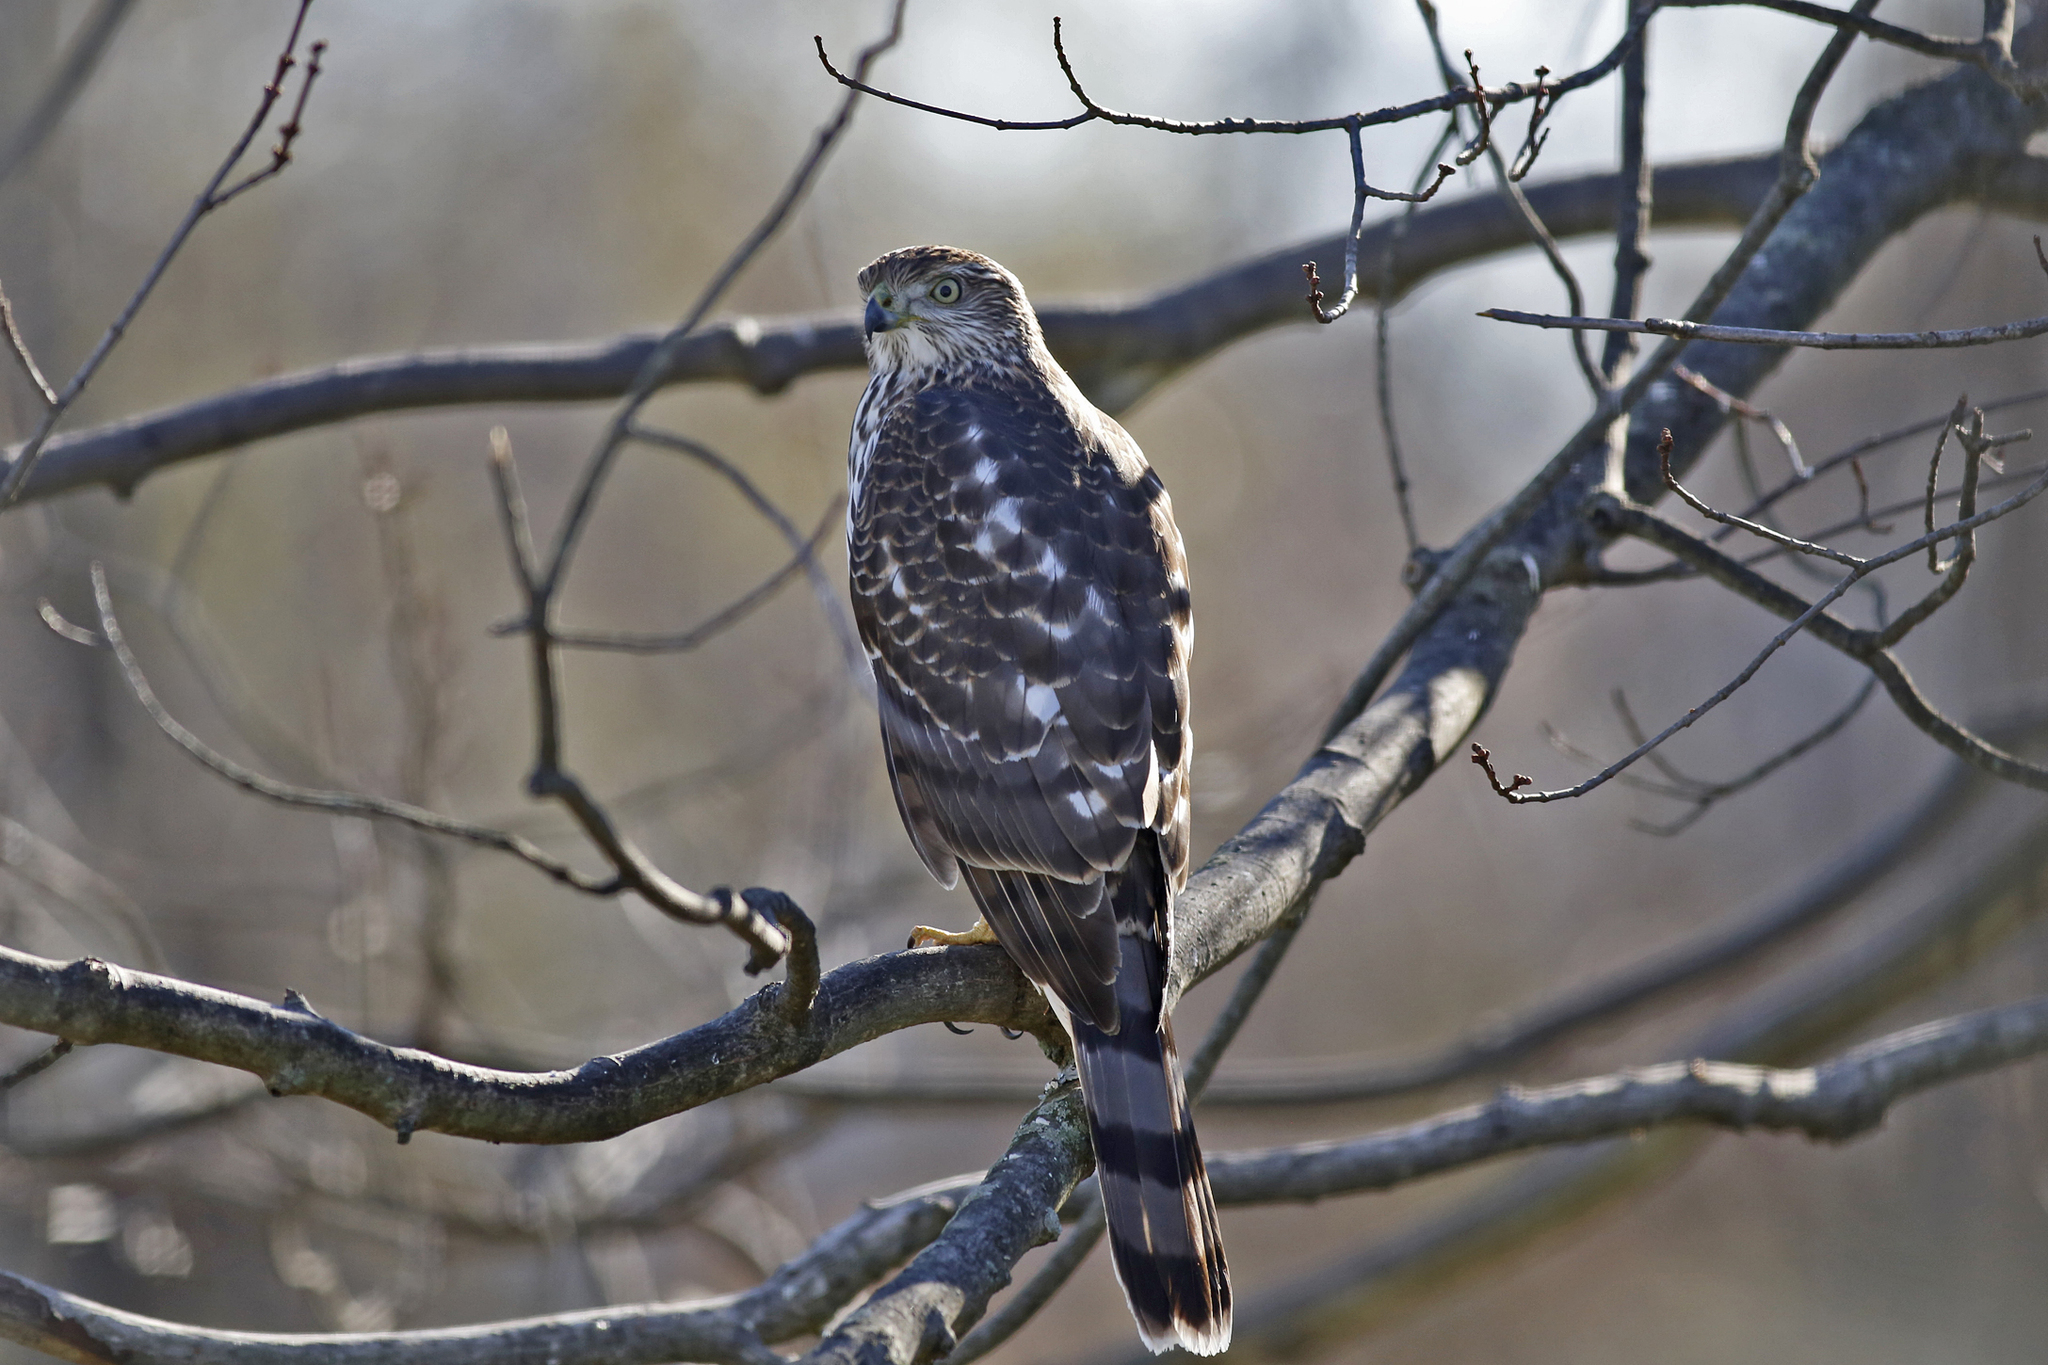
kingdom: Animalia
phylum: Chordata
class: Aves
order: Accipitriformes
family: Accipitridae
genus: Accipiter
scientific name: Accipiter cooperii
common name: Cooper's hawk
